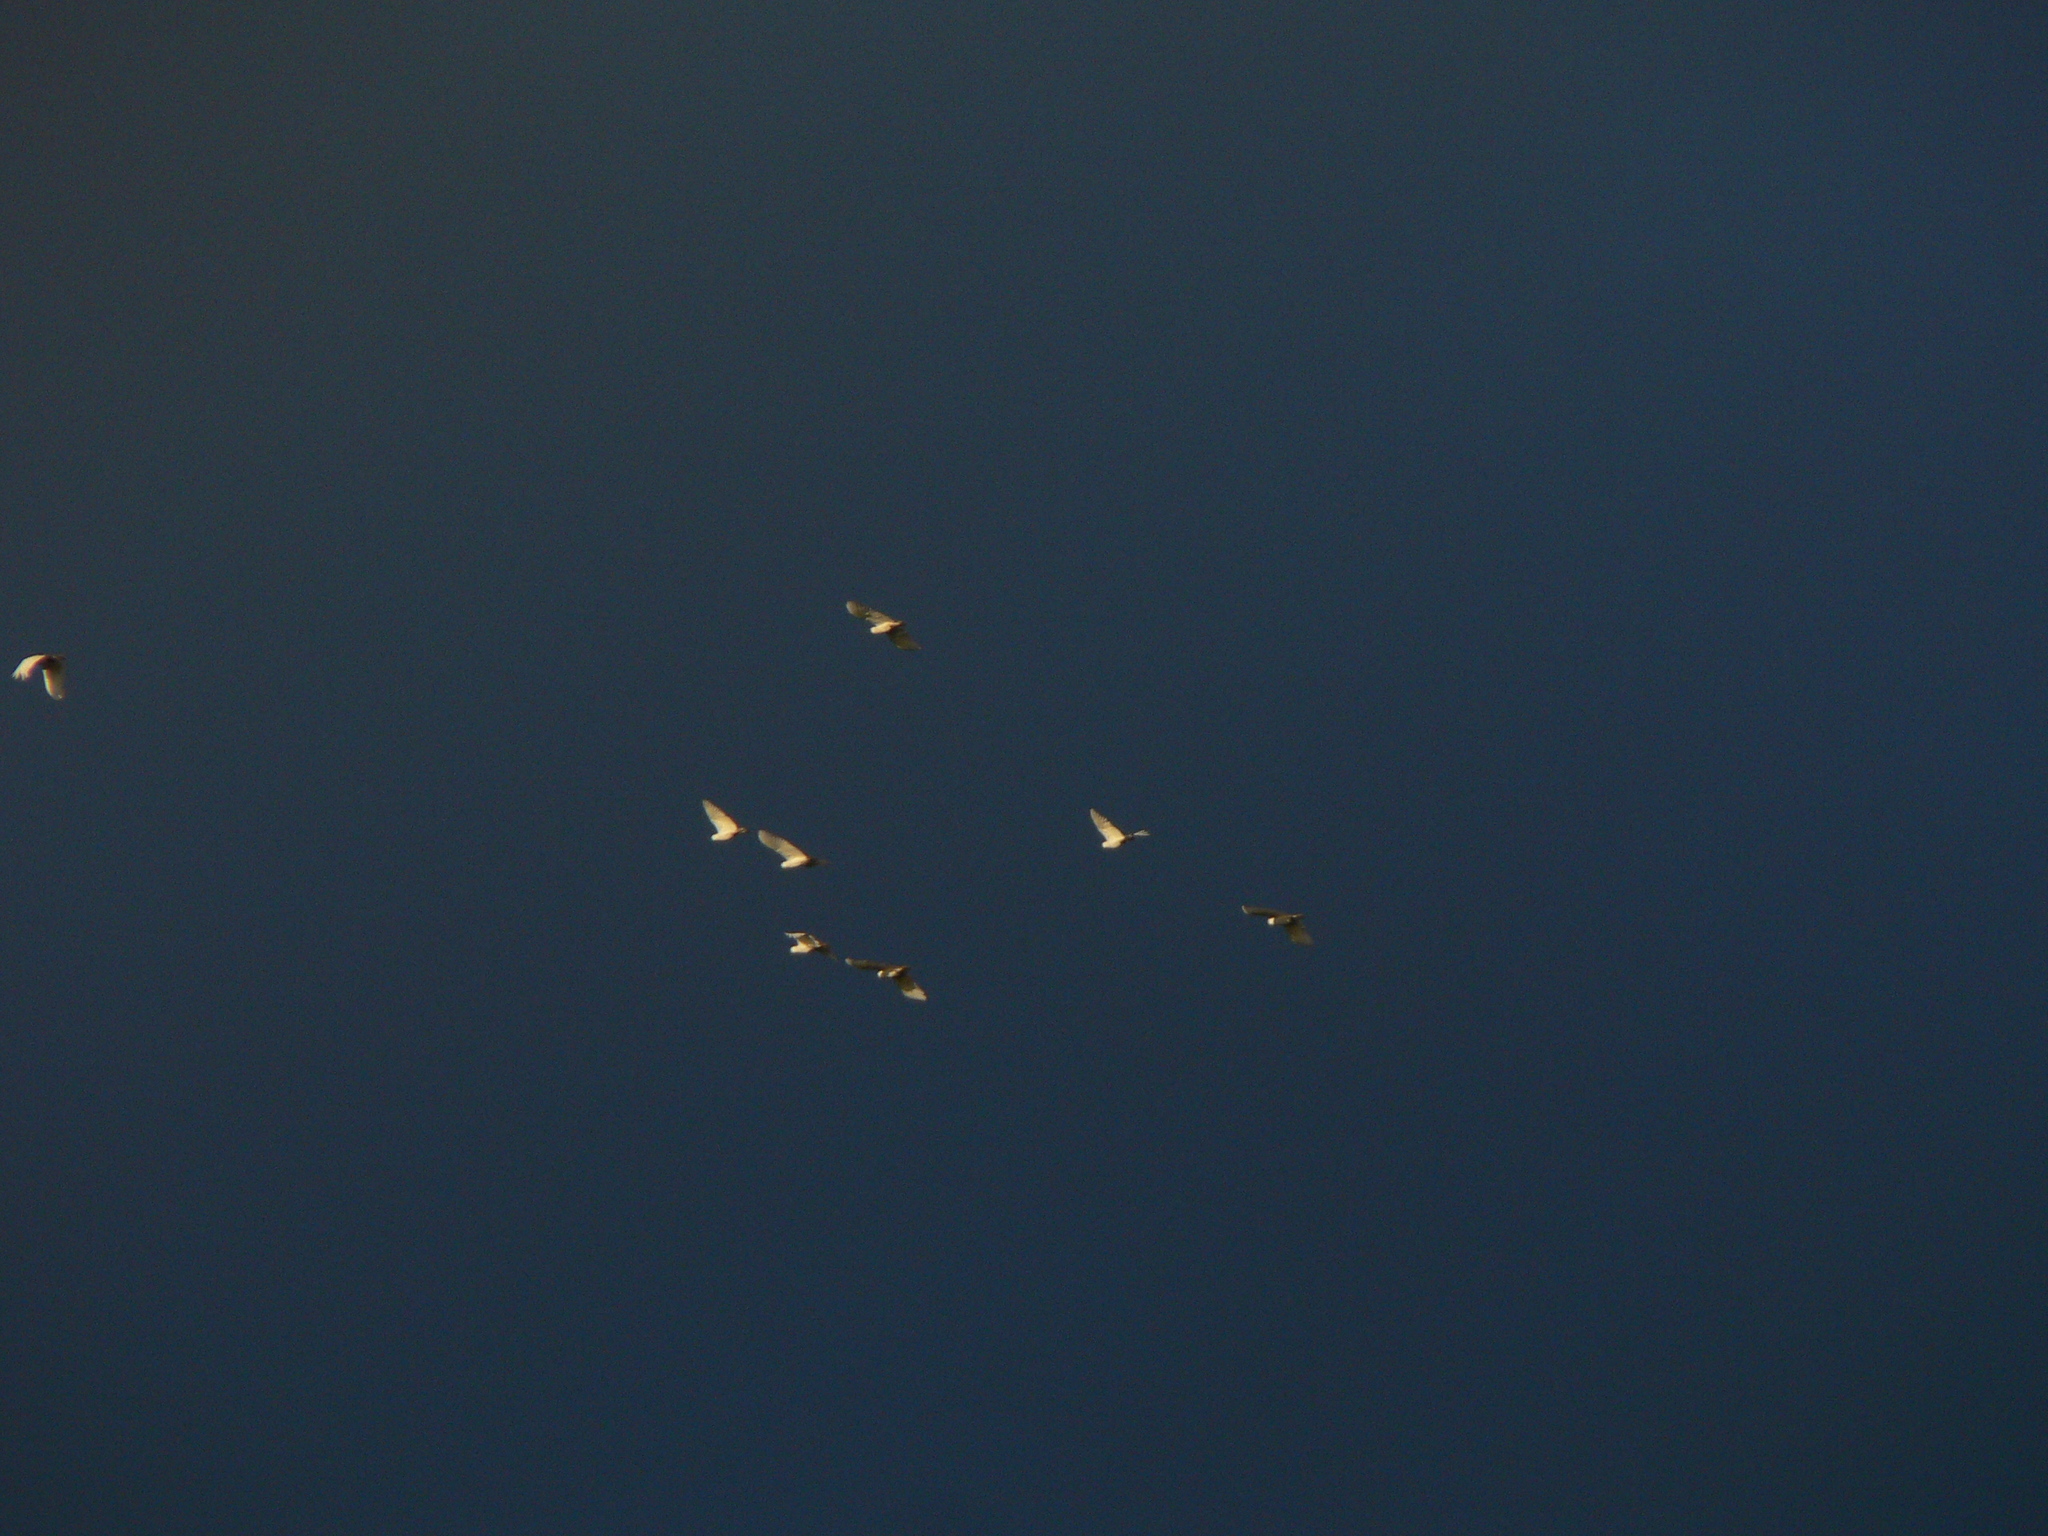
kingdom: Animalia
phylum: Chordata
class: Aves
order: Psittaciformes
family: Psittacidae
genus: Cacatua
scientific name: Cacatua galerita
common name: Sulphur-crested cockatoo
